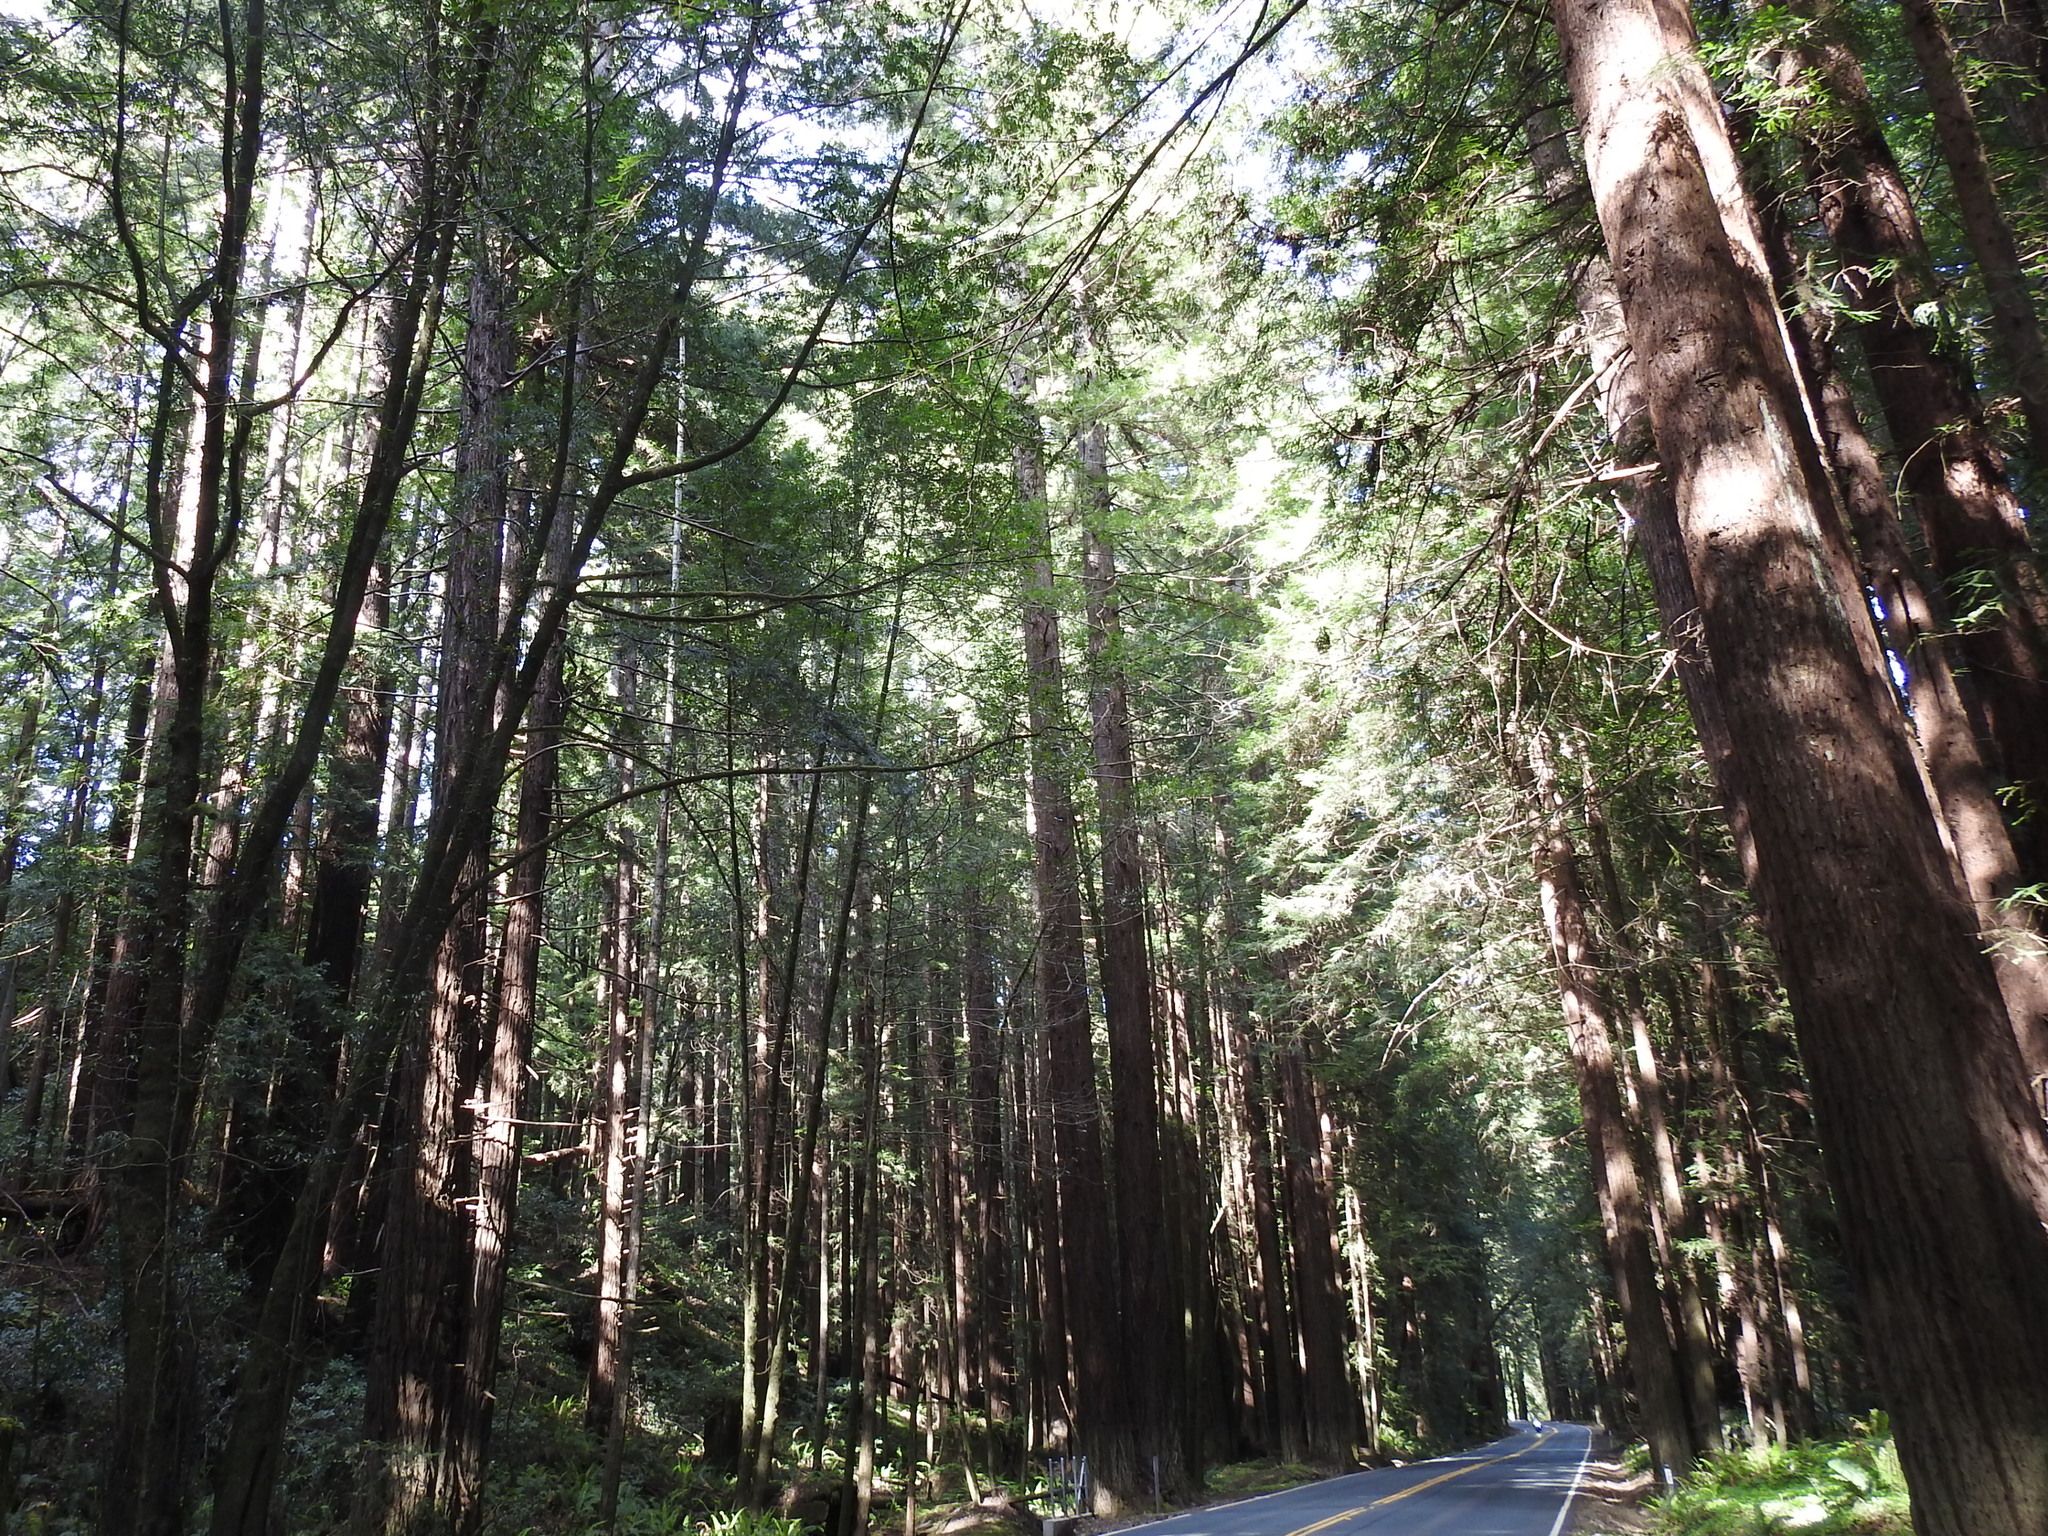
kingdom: Plantae
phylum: Tracheophyta
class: Pinopsida
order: Pinales
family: Cupressaceae
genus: Sequoia
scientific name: Sequoia sempervirens
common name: Coast redwood
